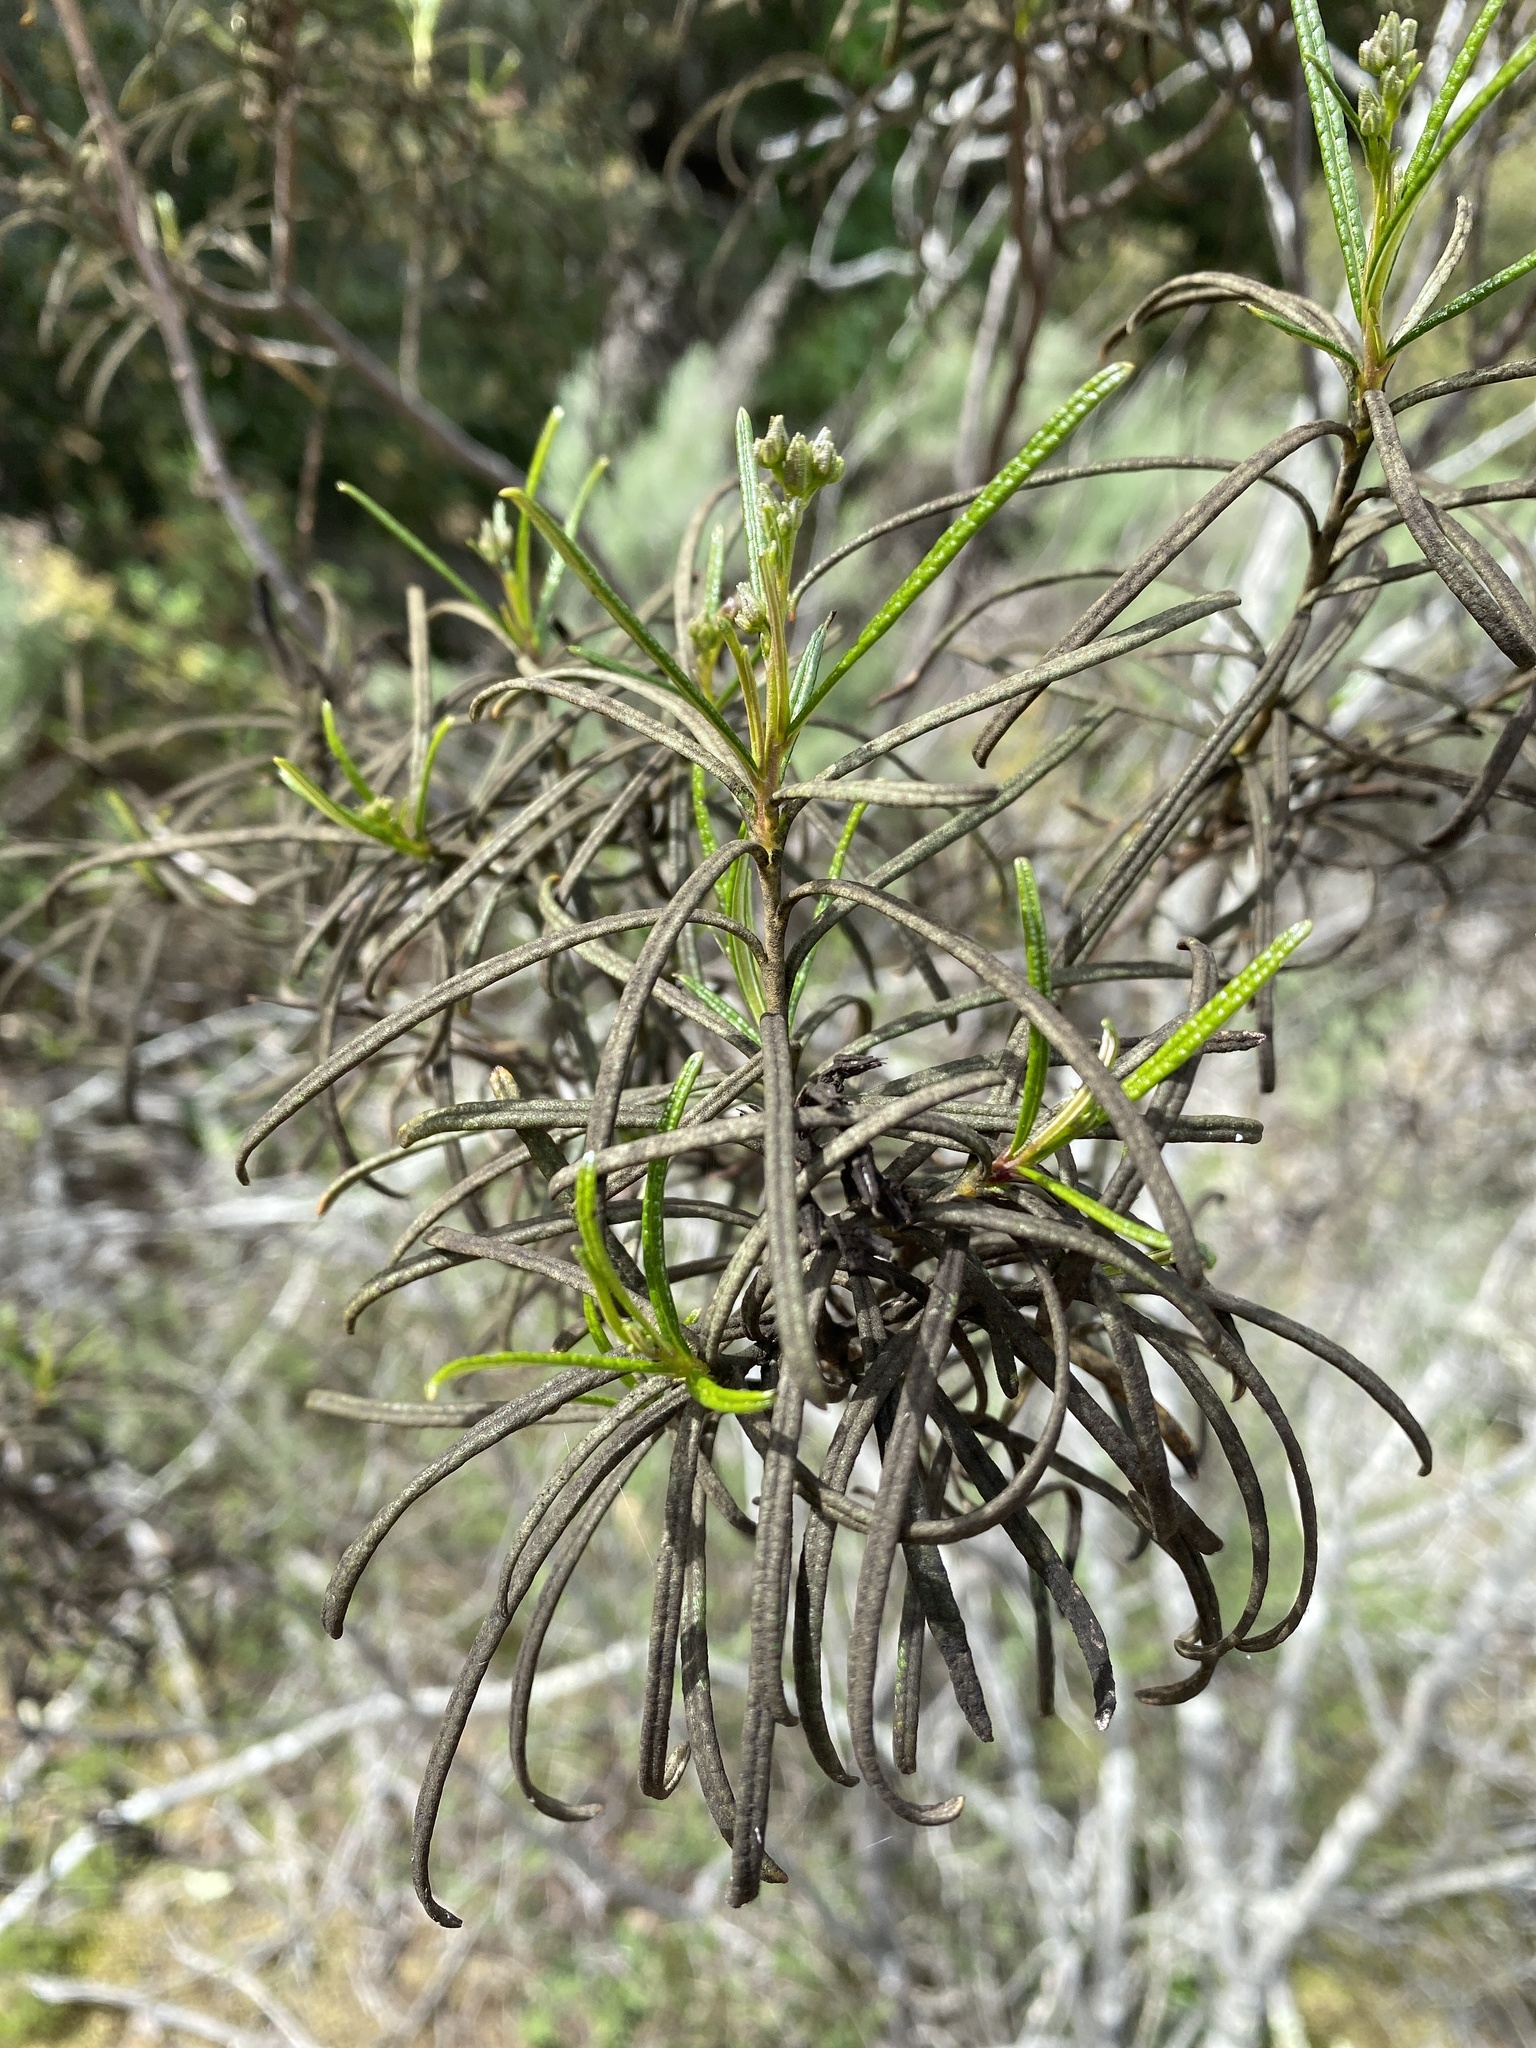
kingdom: Plantae
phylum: Tracheophyta
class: Magnoliopsida
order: Boraginales
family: Namaceae
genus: Eriodictyon
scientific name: Eriodictyon altissimum
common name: Indian knob mountain balm
